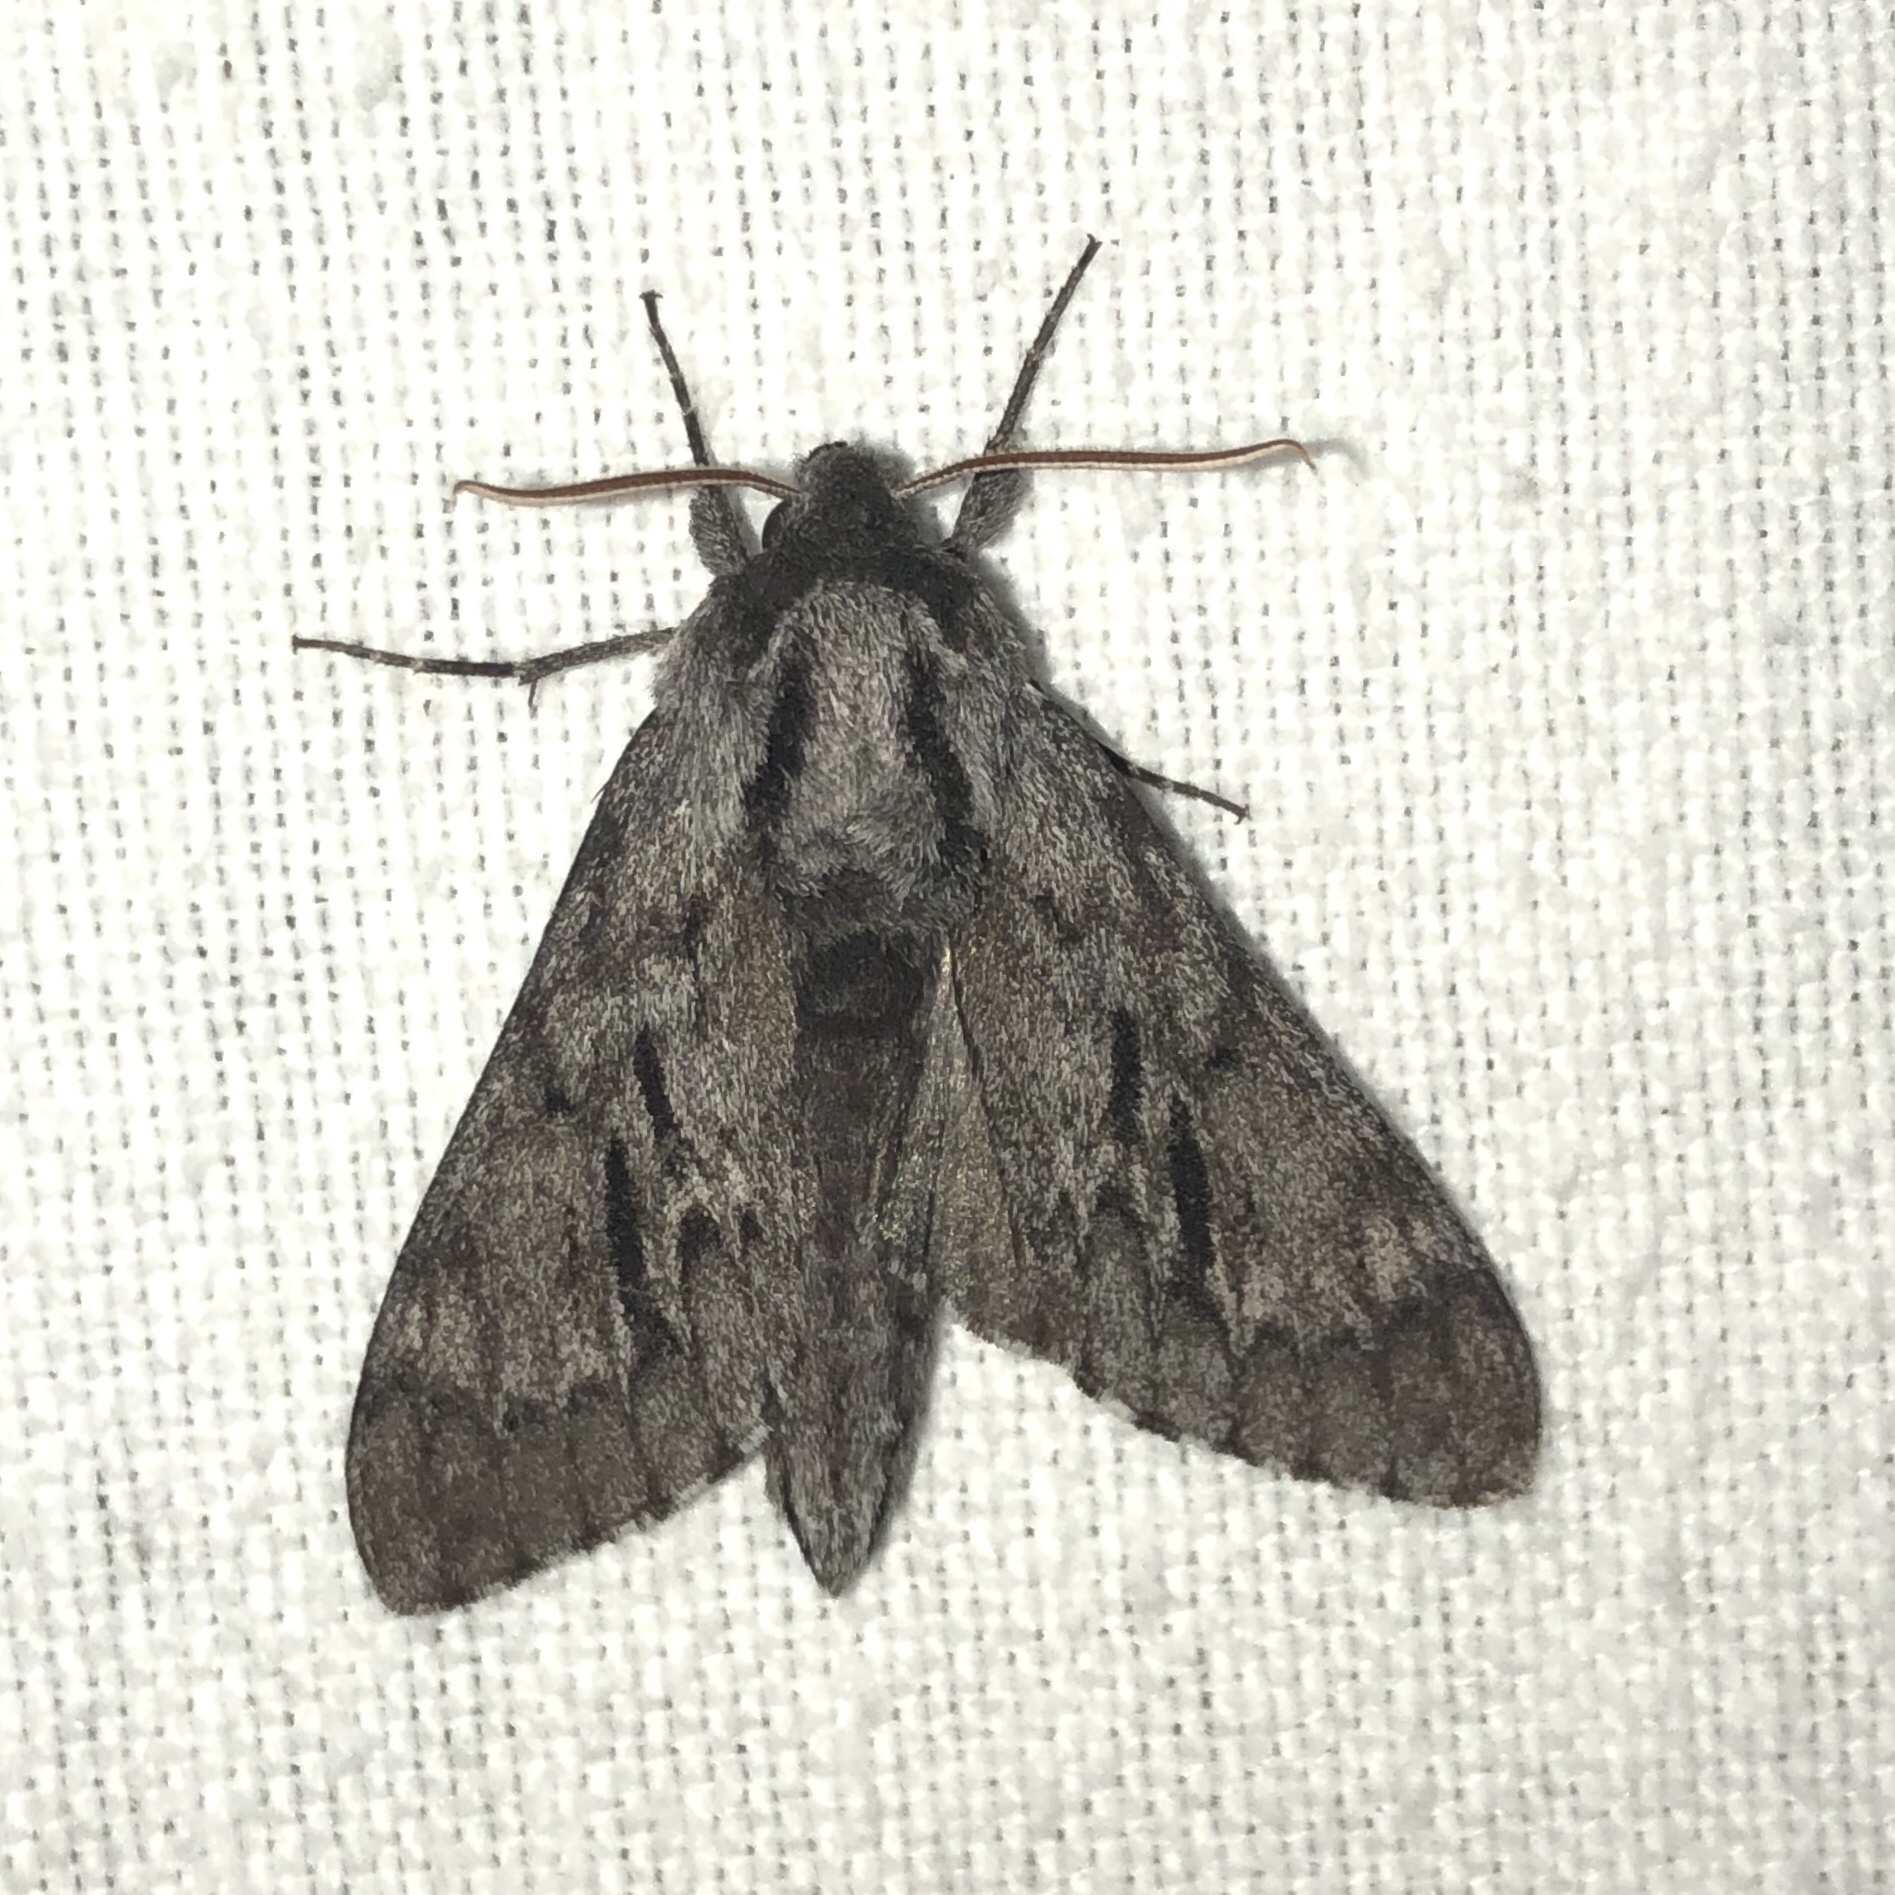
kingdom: Animalia
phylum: Arthropoda
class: Insecta
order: Lepidoptera
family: Sphingidae
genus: Lapara
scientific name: Lapara bombycoides
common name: Northern pine sphinx
